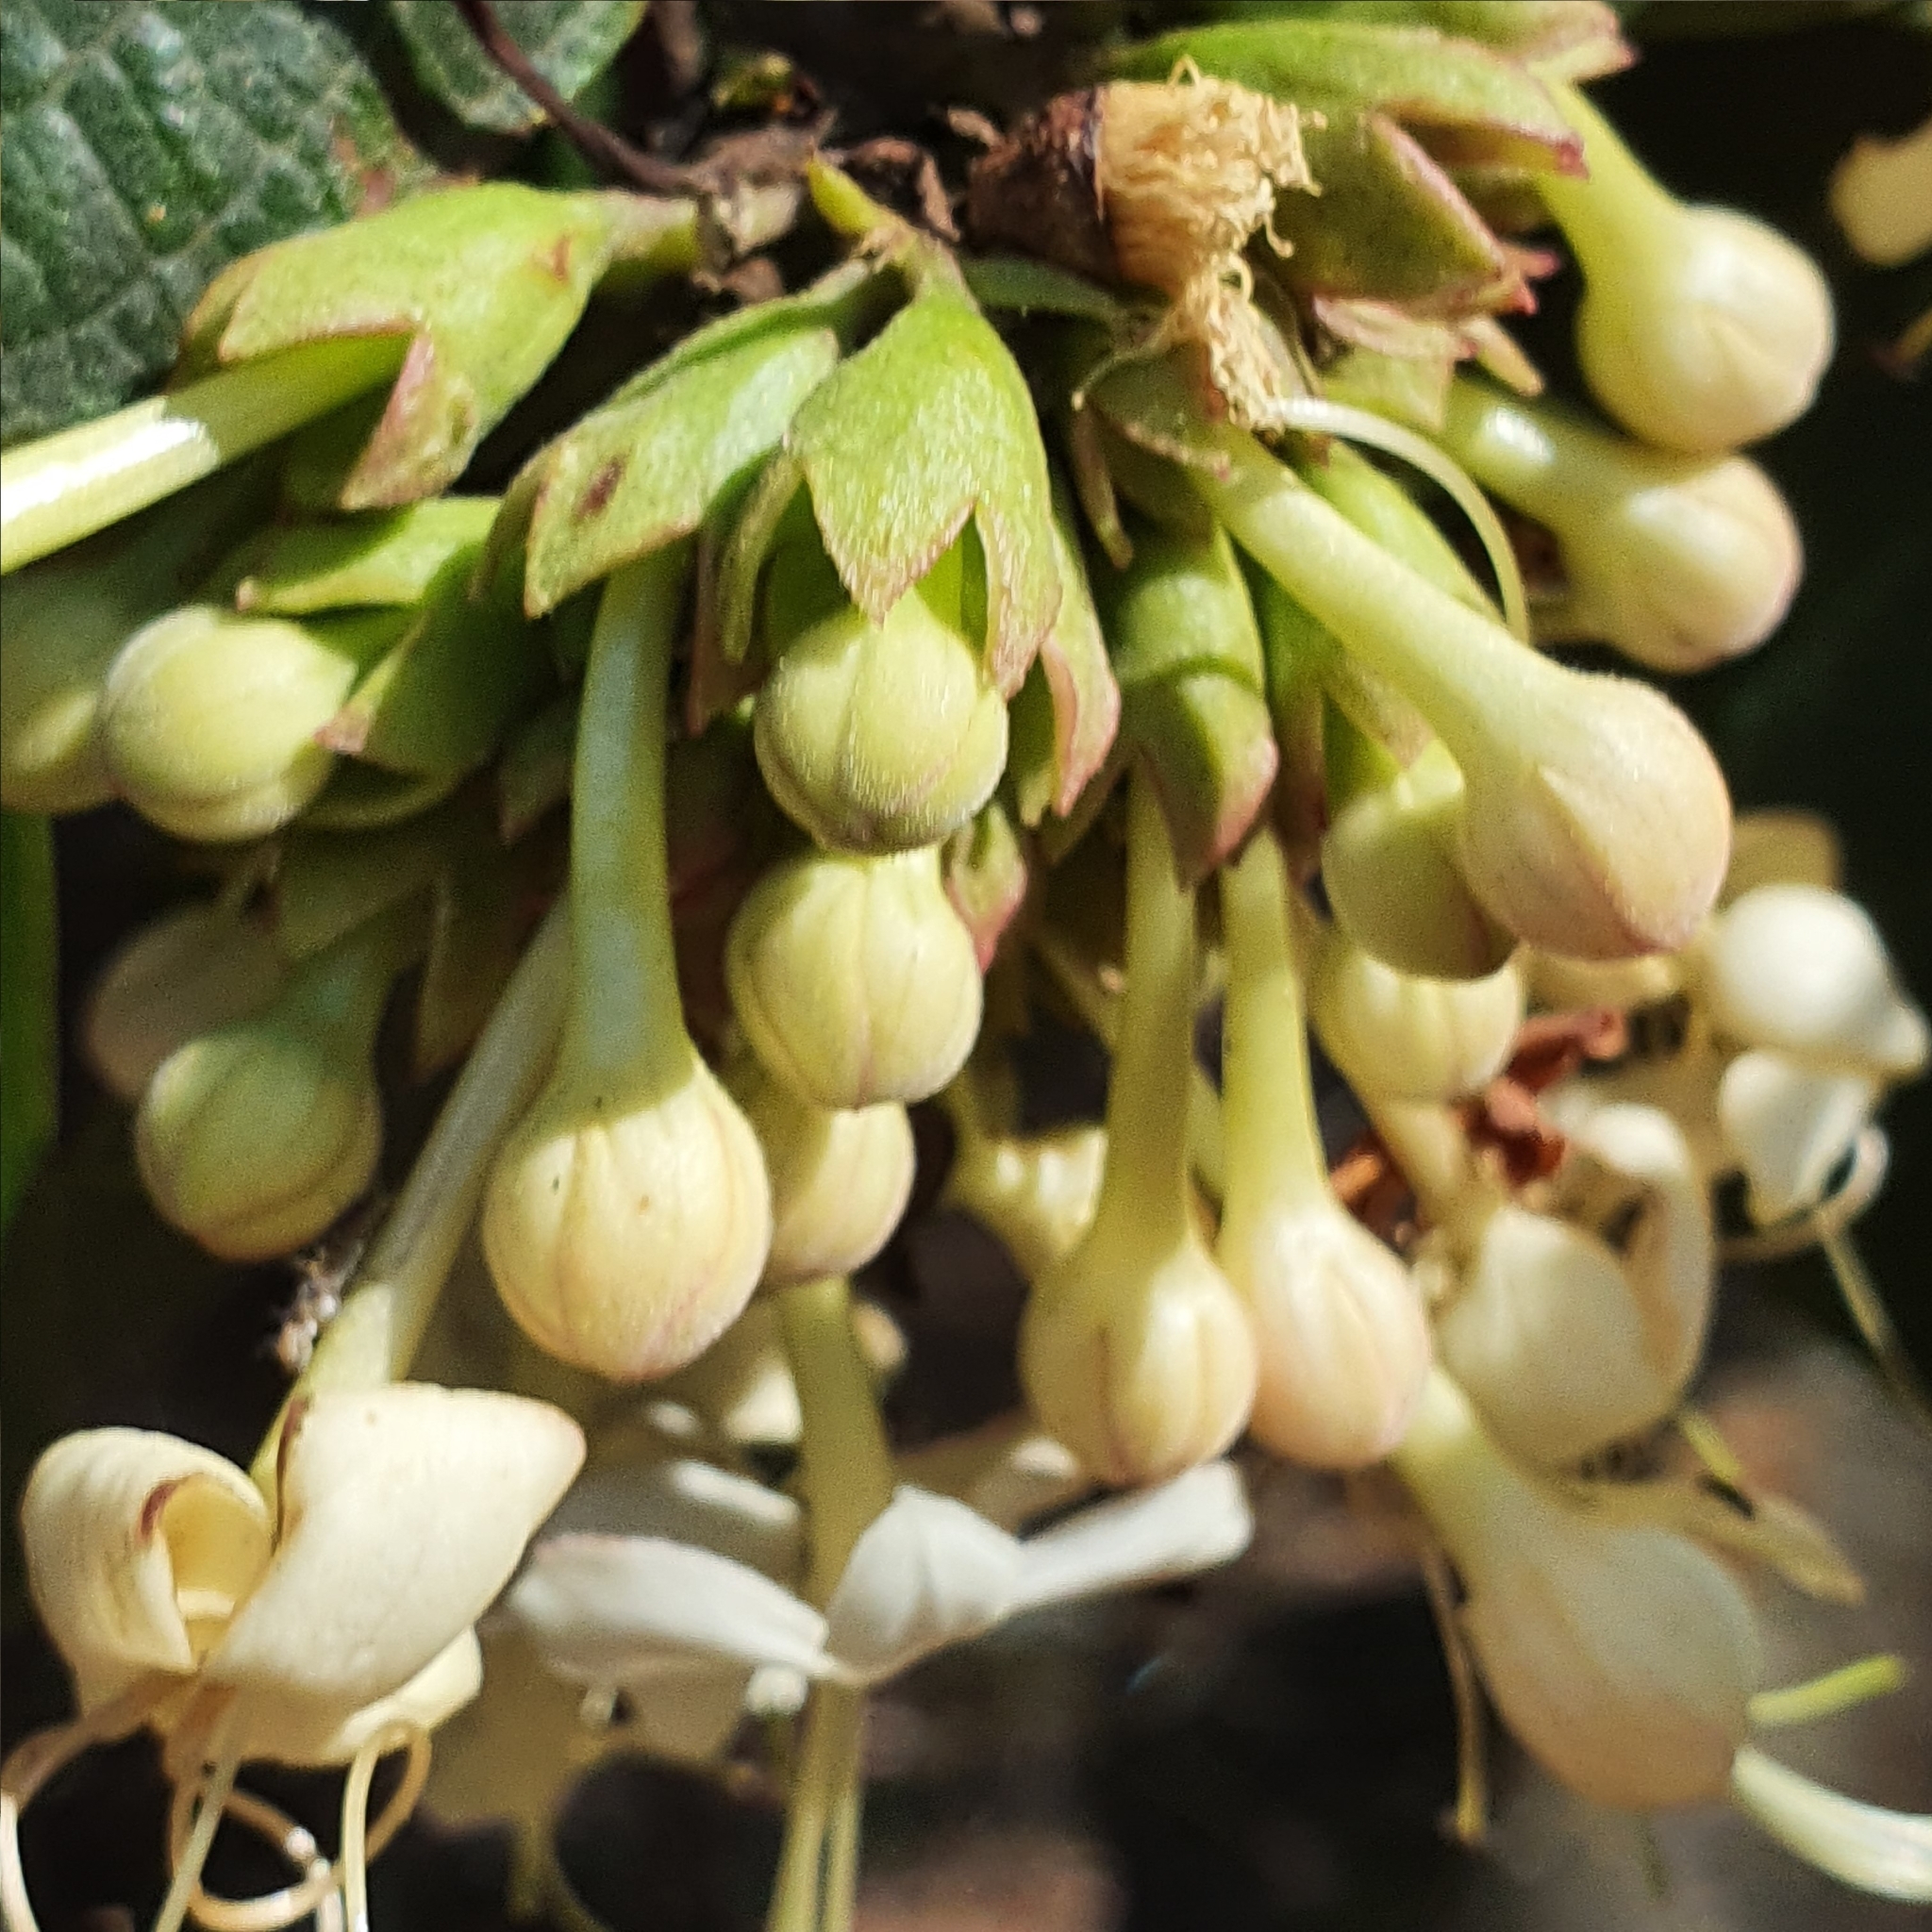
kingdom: Plantae
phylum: Tracheophyta
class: Magnoliopsida
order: Lamiales
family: Lamiaceae
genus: Clerodendrum
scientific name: Clerodendrum tomentosum
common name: Hairy clerodendrum
